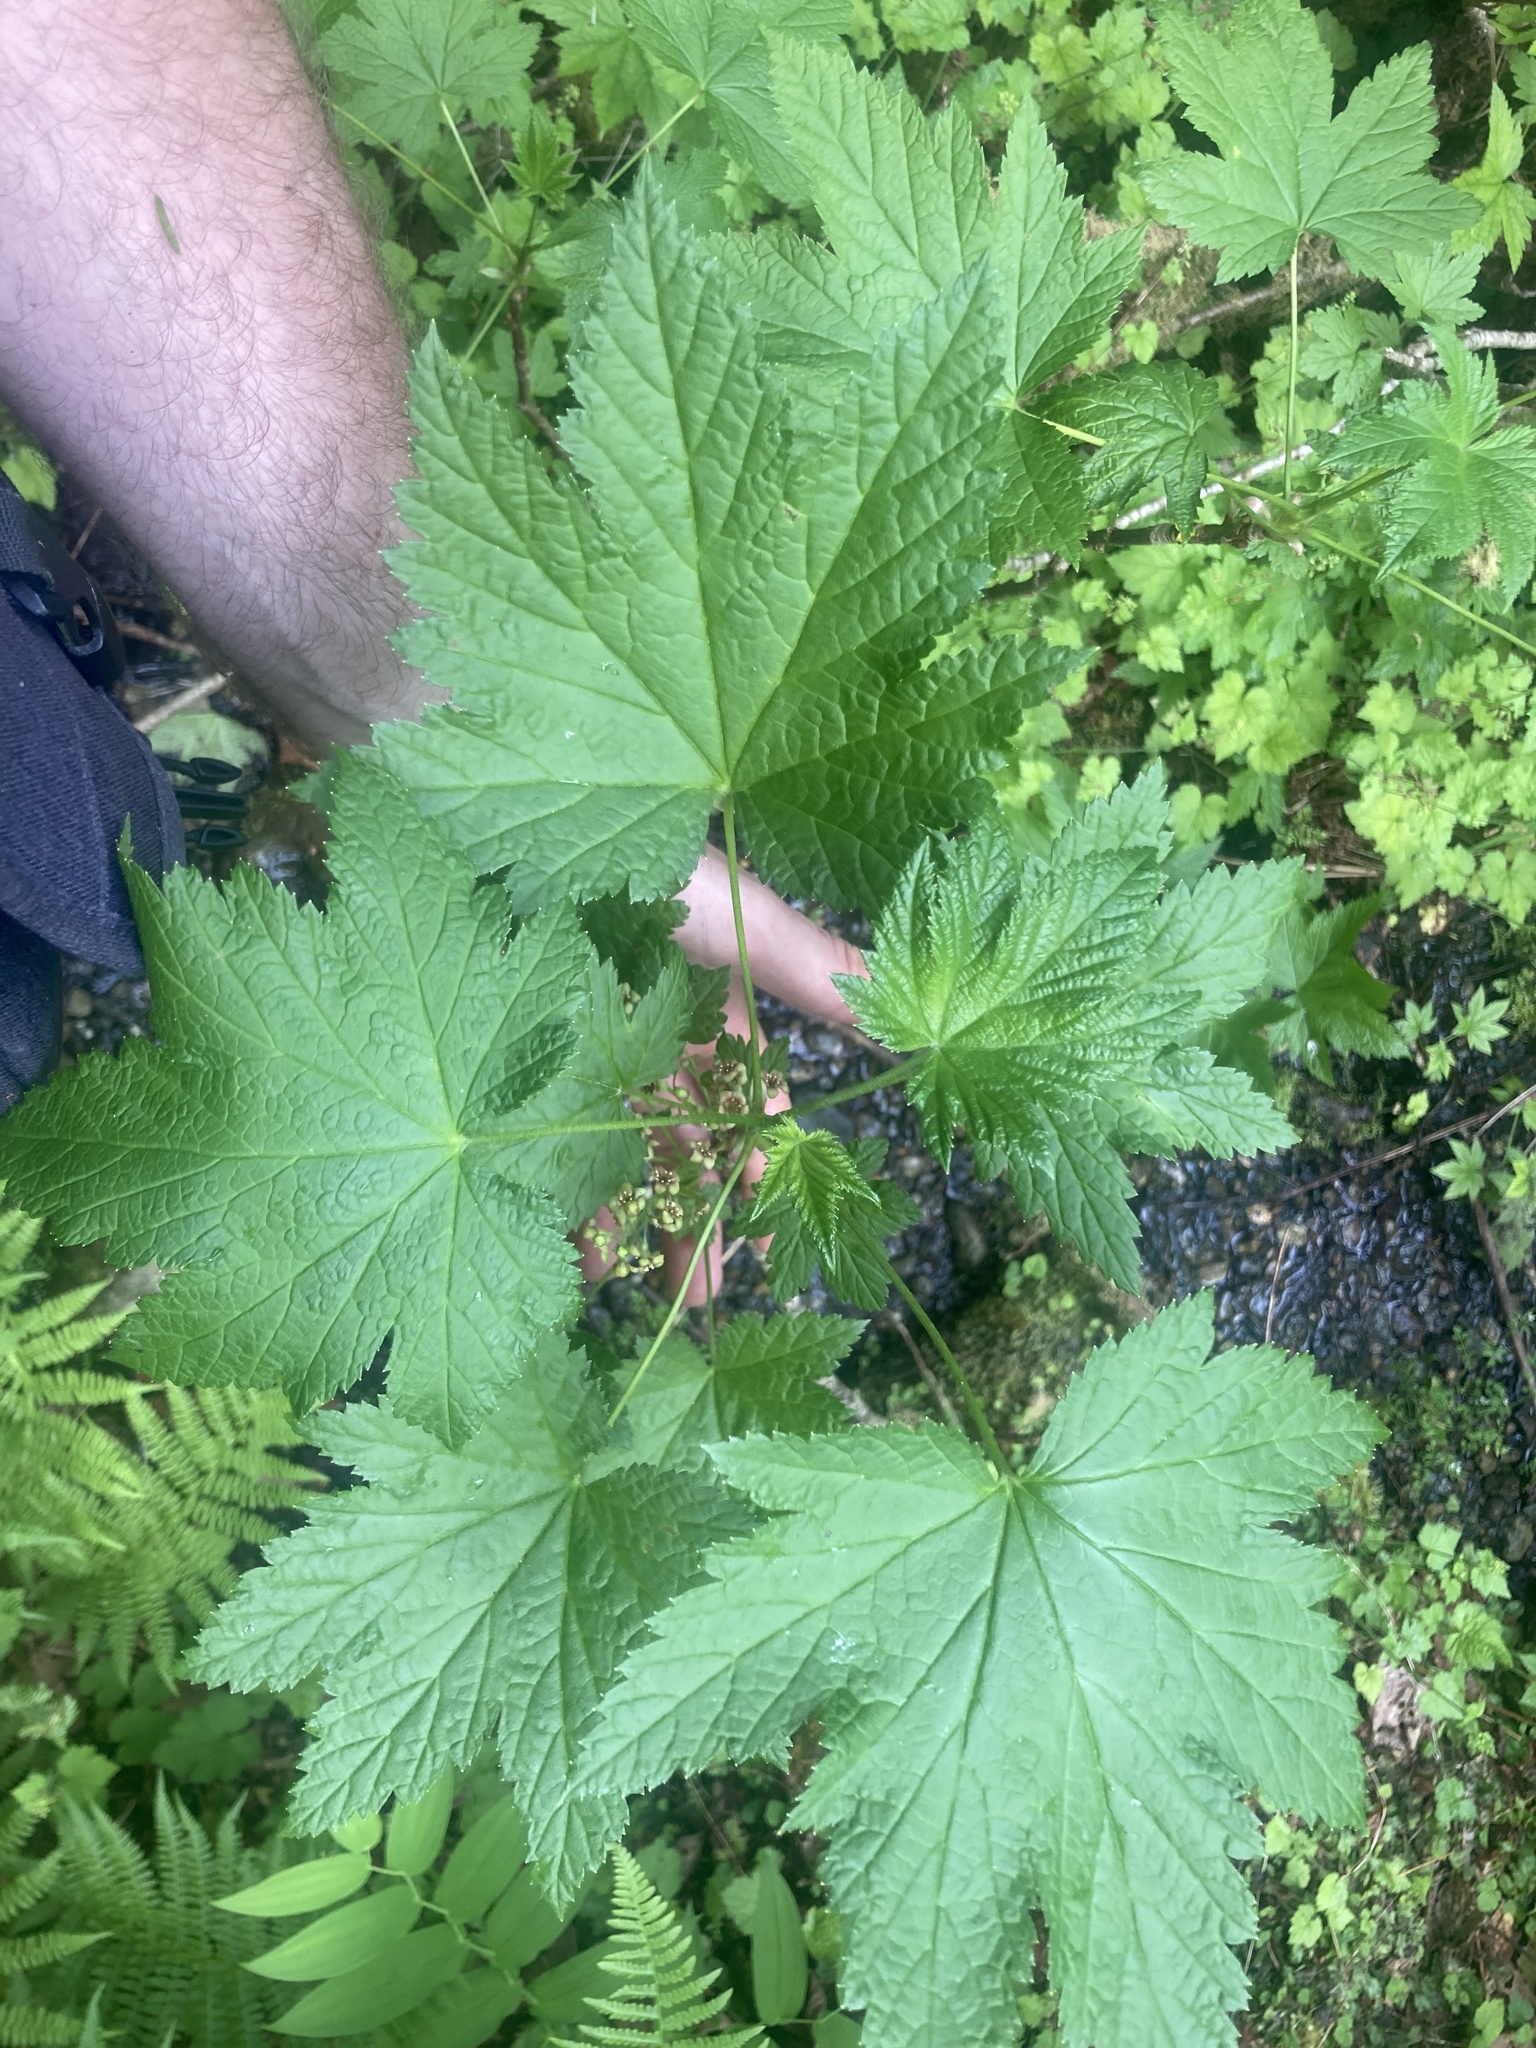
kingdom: Plantae
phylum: Tracheophyta
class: Magnoliopsida
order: Saxifragales
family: Grossulariaceae
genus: Ribes
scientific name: Ribes bracteosum
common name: California black currant
